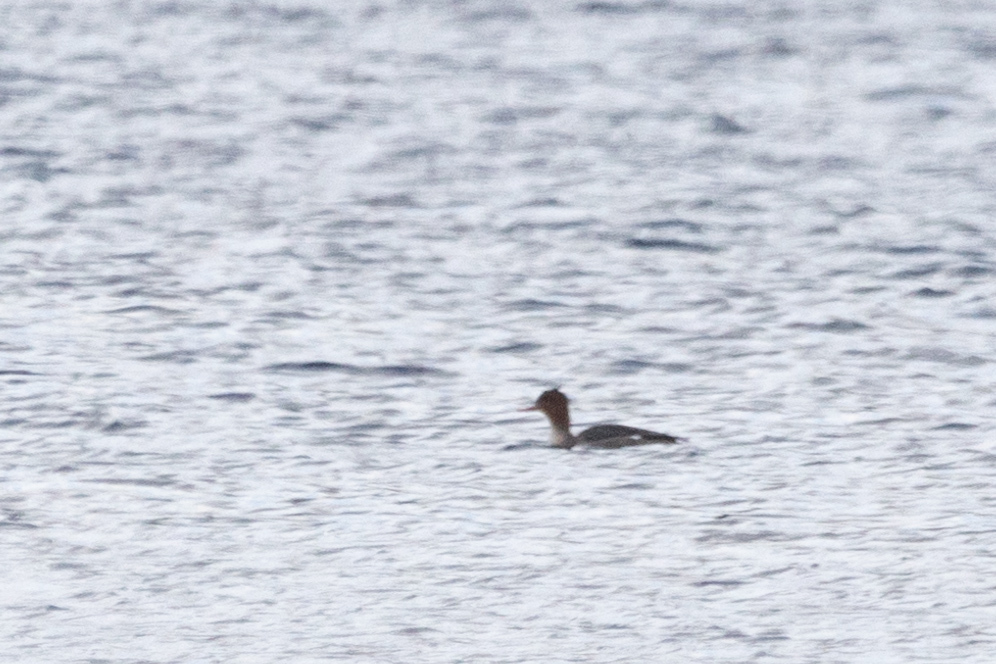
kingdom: Animalia
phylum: Chordata
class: Aves
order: Anseriformes
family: Anatidae
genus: Mergus
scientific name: Mergus serrator
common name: Red-breasted merganser
